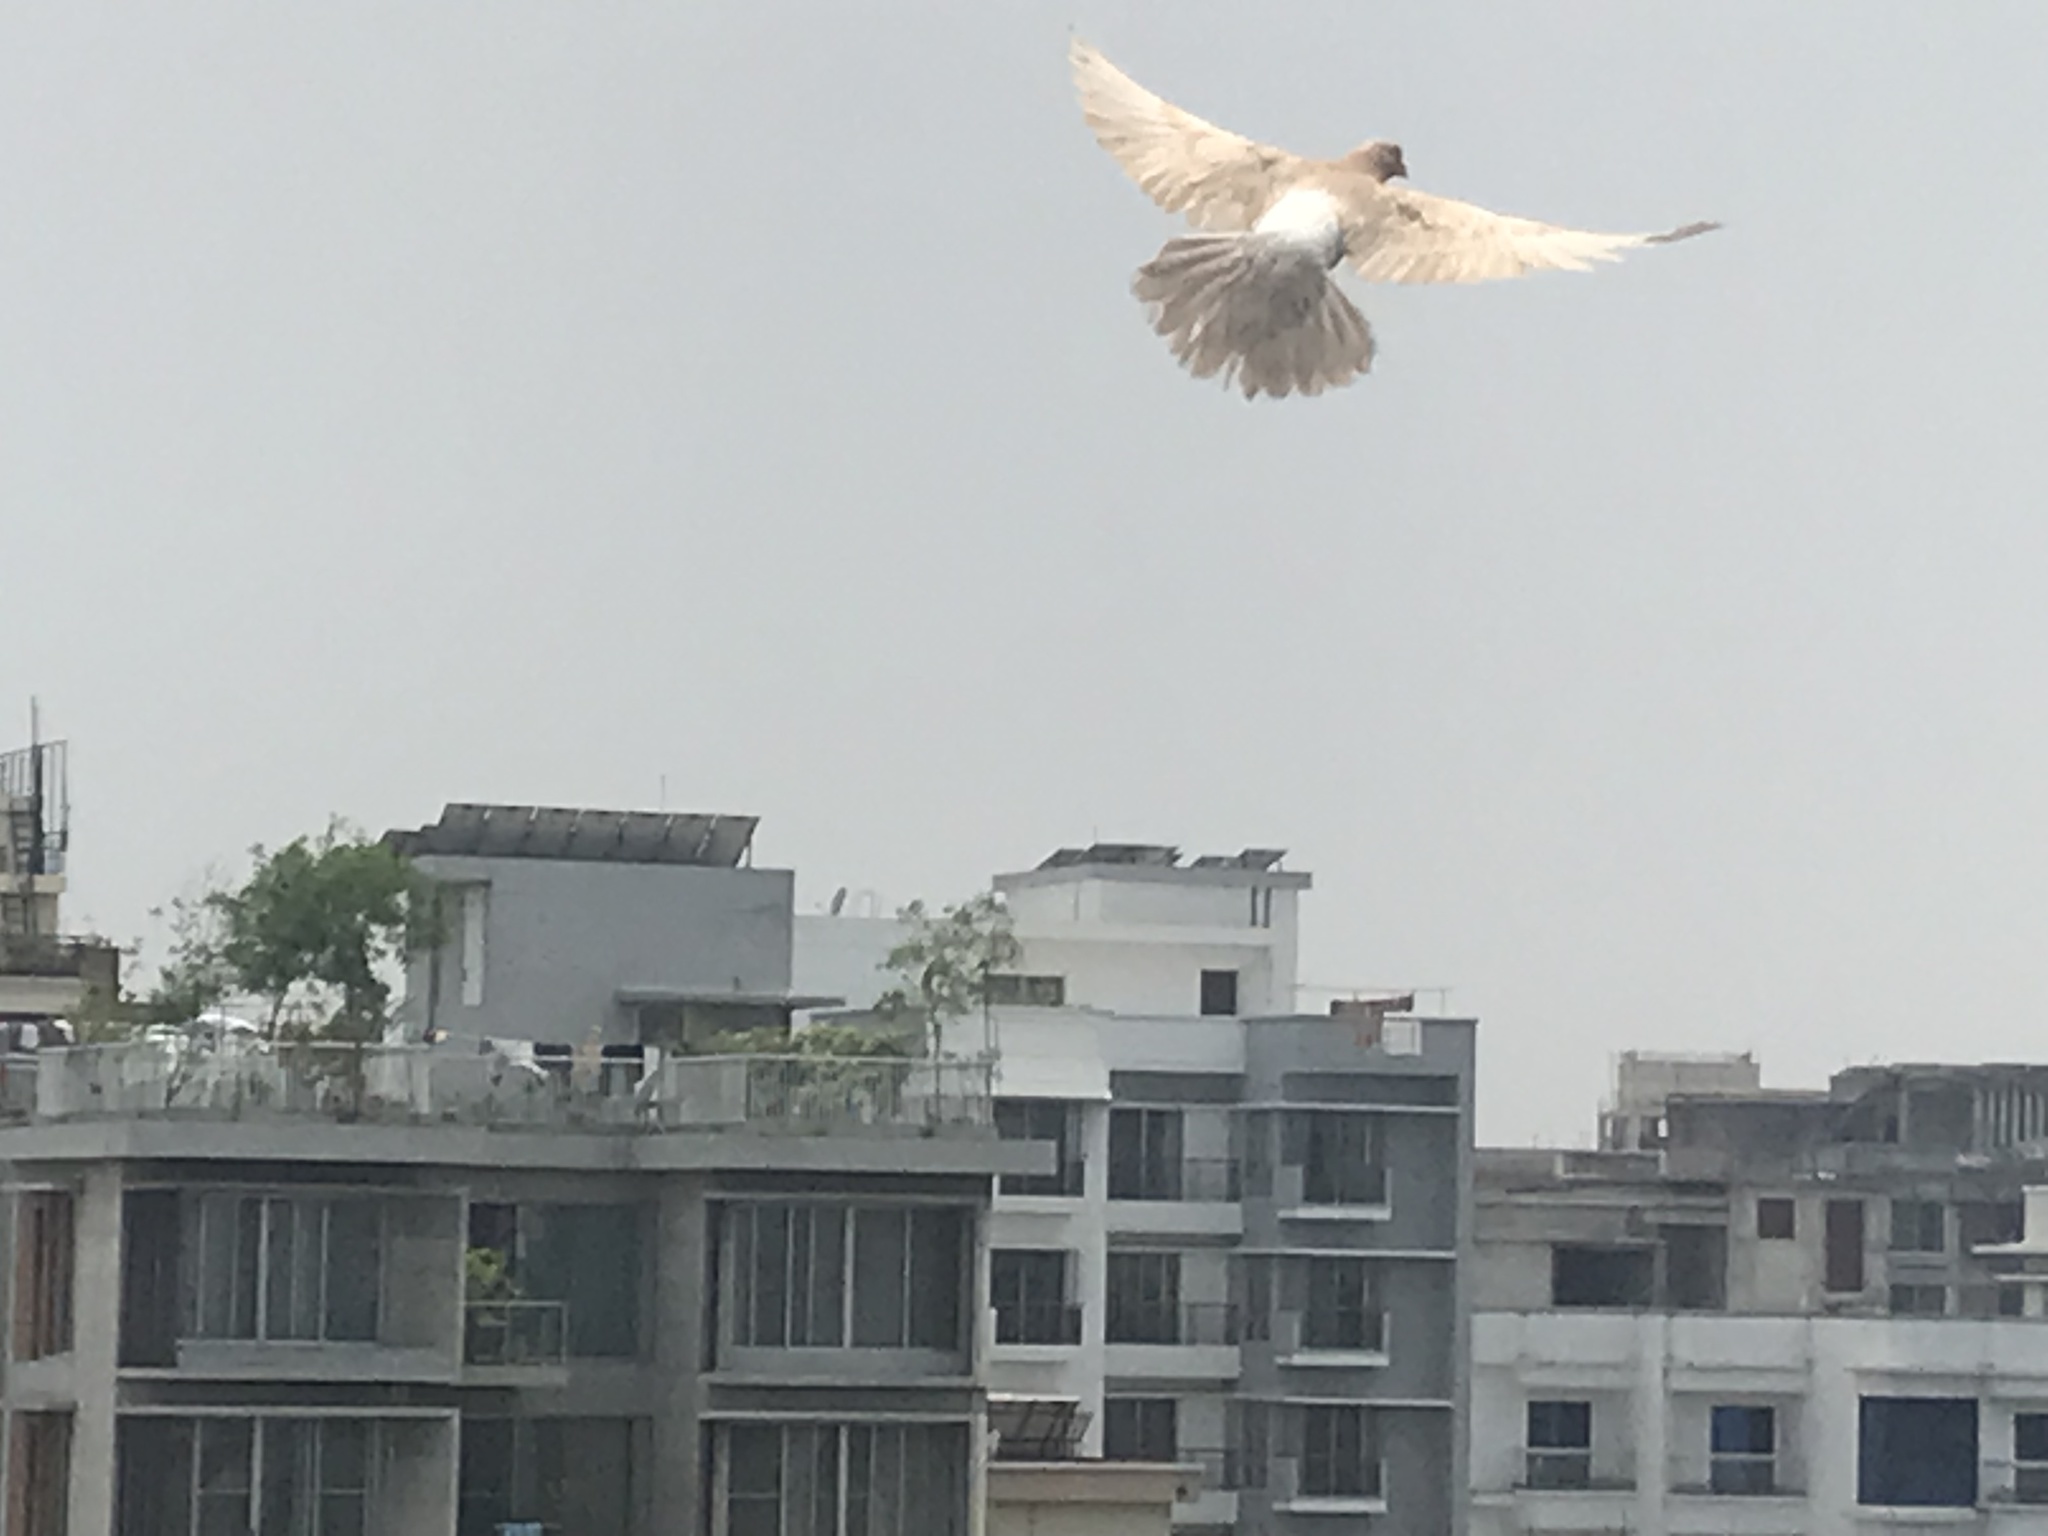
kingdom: Animalia
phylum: Chordata
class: Aves
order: Columbiformes
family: Columbidae
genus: Columba
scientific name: Columba livia
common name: Rock pigeon
